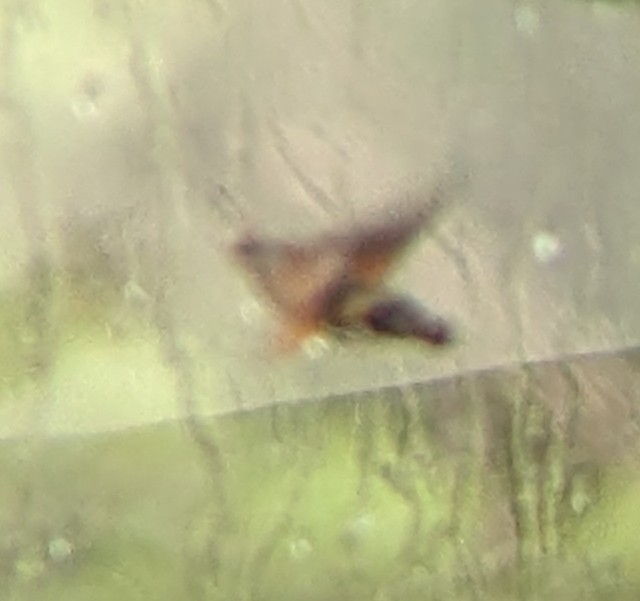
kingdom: Animalia
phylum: Arthropoda
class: Insecta
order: Lepidoptera
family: Sphingidae
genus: Macroglossum
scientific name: Macroglossum stellatarum
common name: Humming-bird hawk-moth
